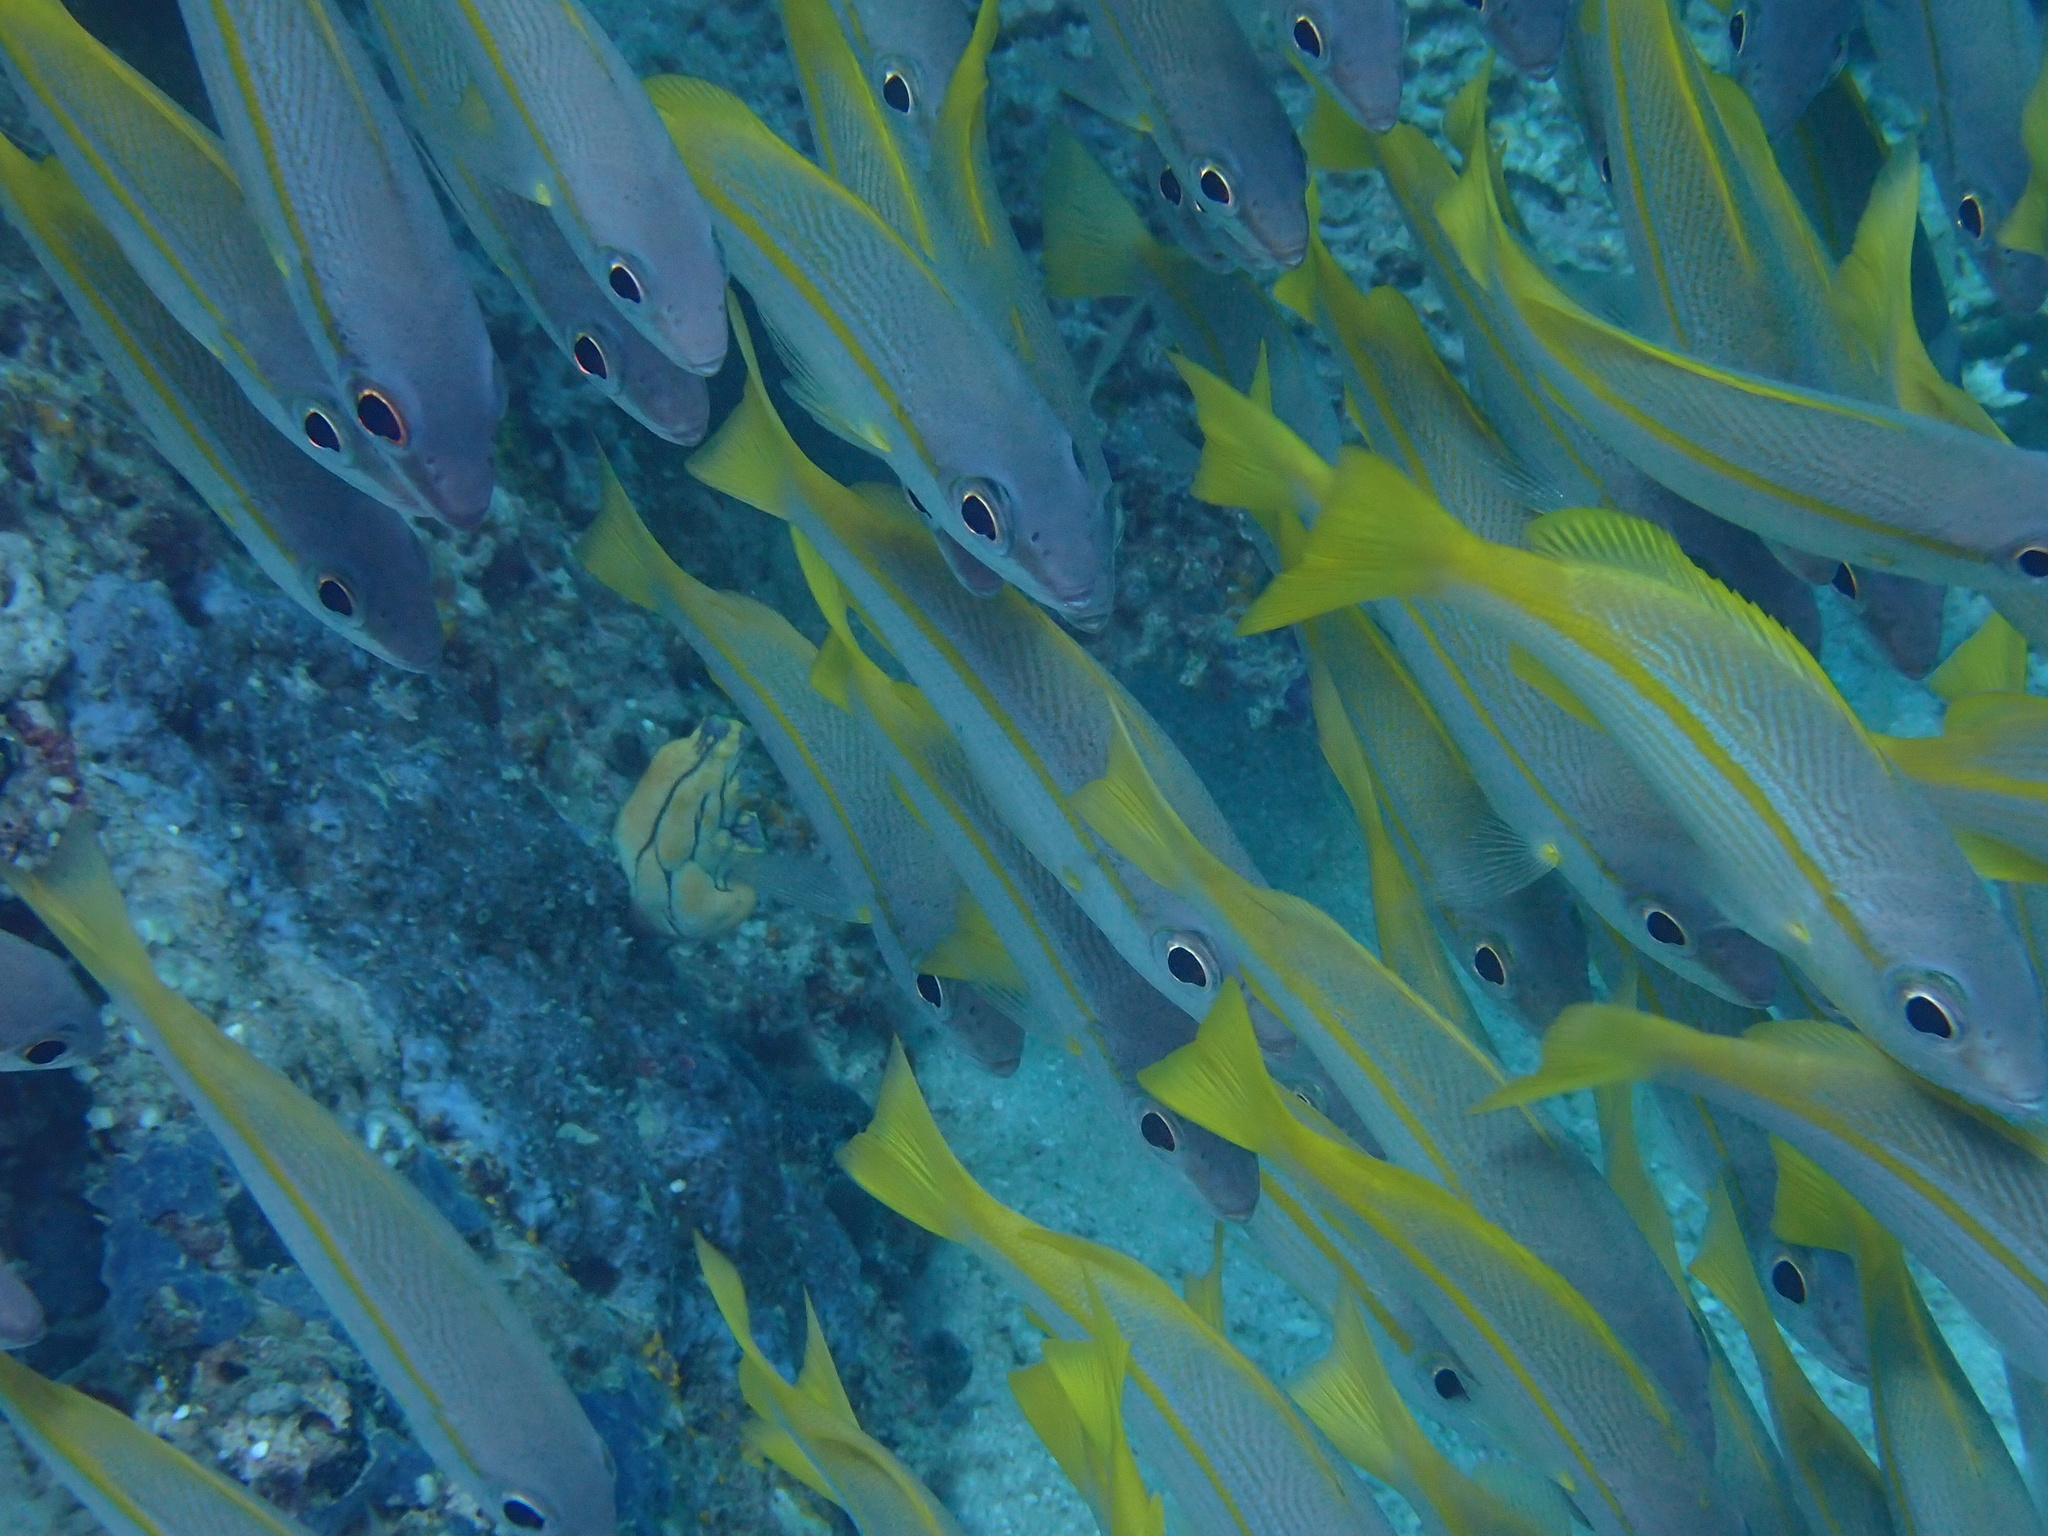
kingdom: Animalia
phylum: Chordata
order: Perciformes
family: Lutjanidae
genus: Lutjanus
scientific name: Lutjanus lutjanus
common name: Bigeye snapper
